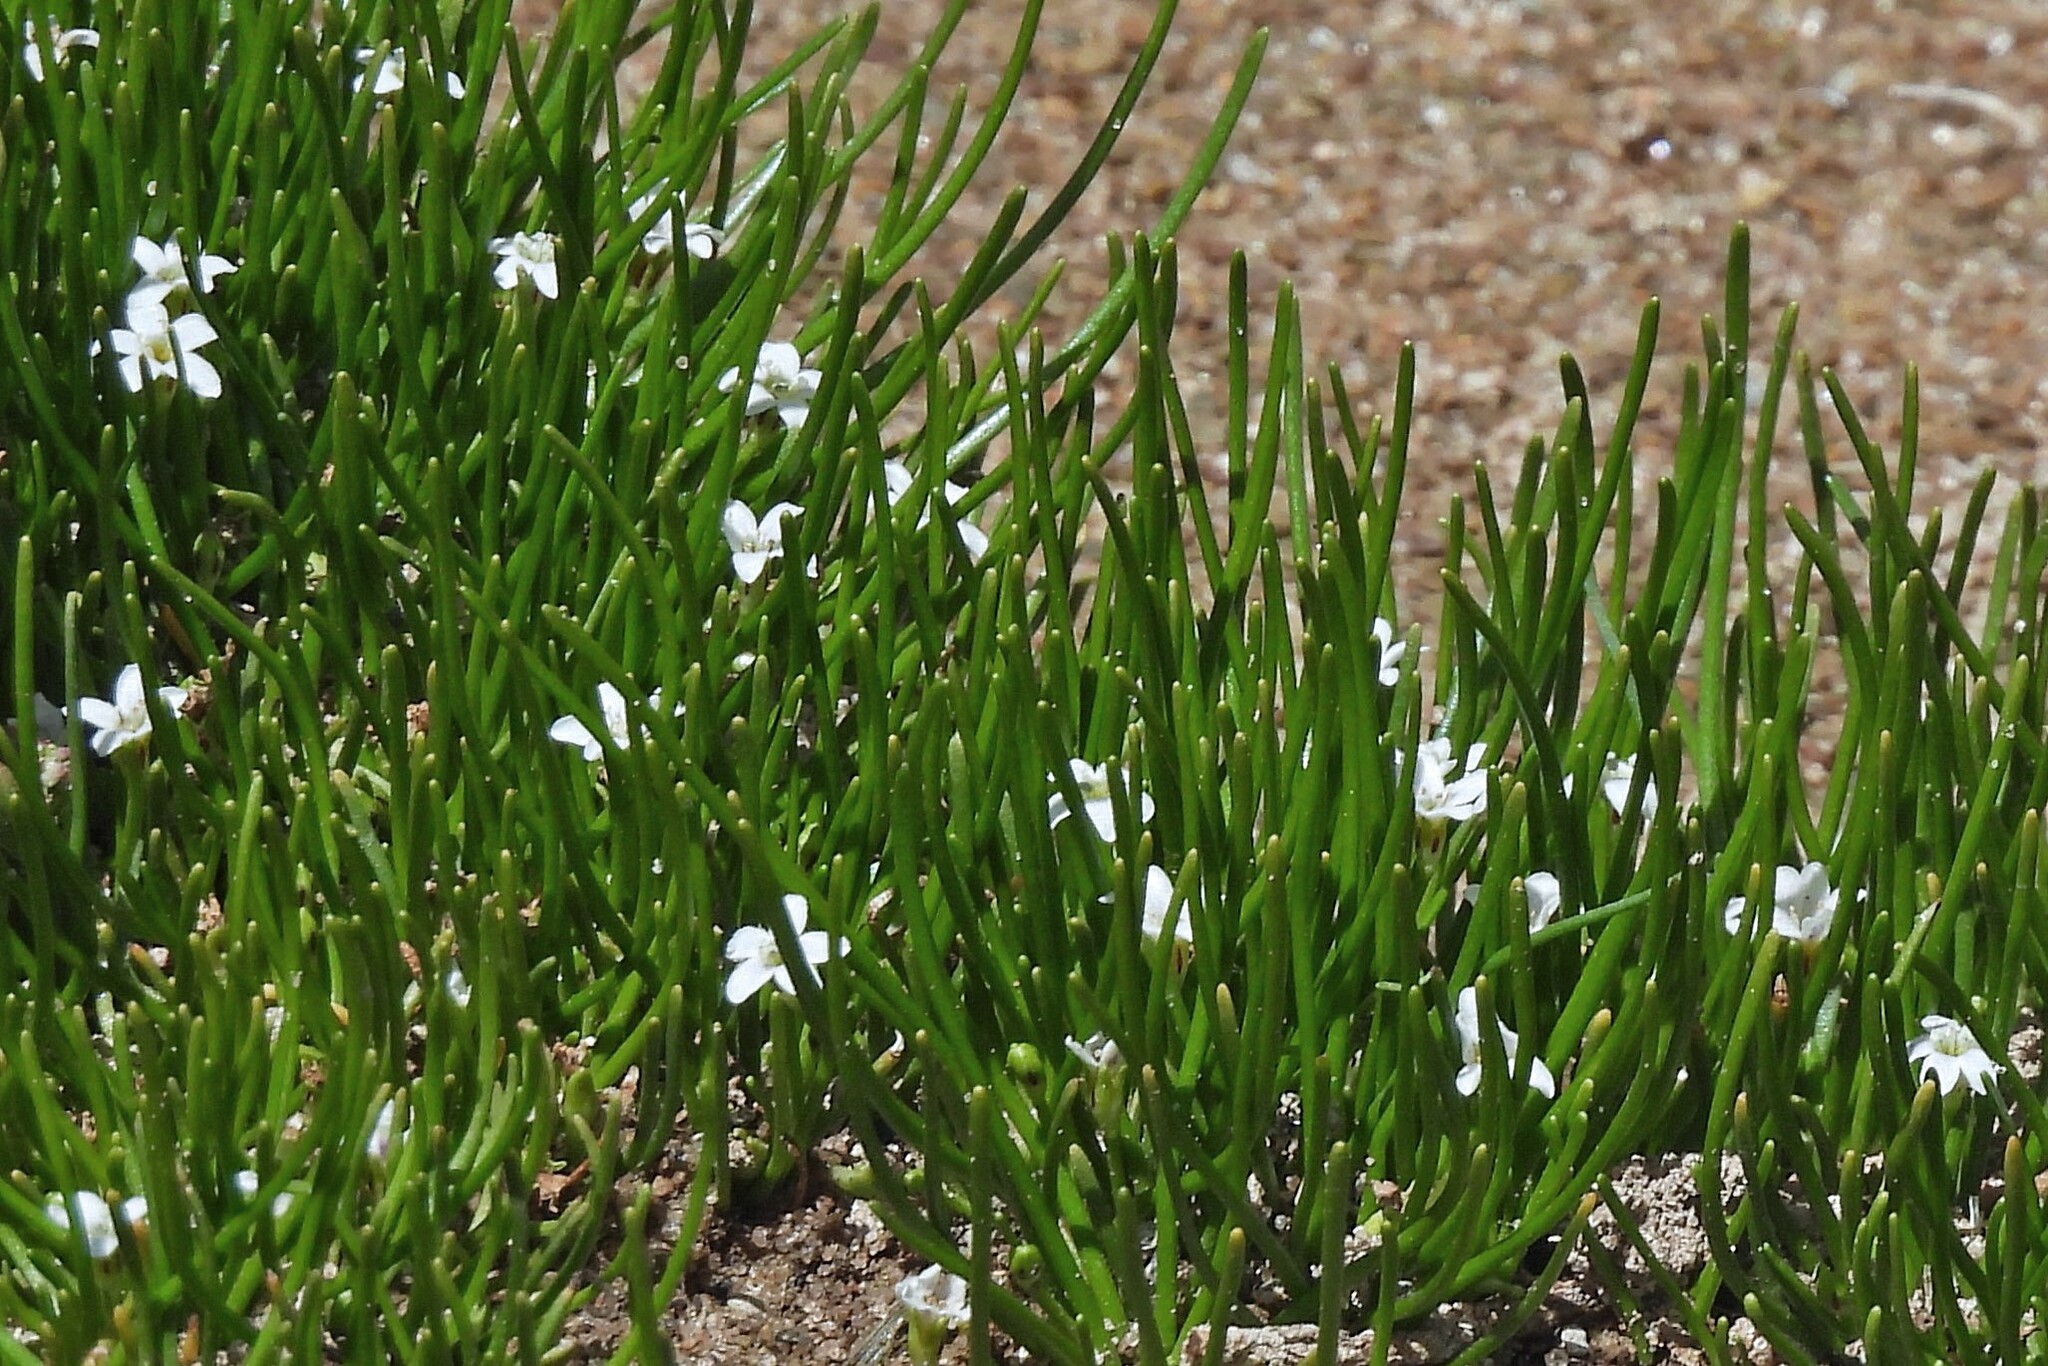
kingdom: Plantae
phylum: Tracheophyta
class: Magnoliopsida
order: Lamiales
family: Scrophulariaceae
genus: Limosella
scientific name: Limosella australis
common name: Welsh mudwort
